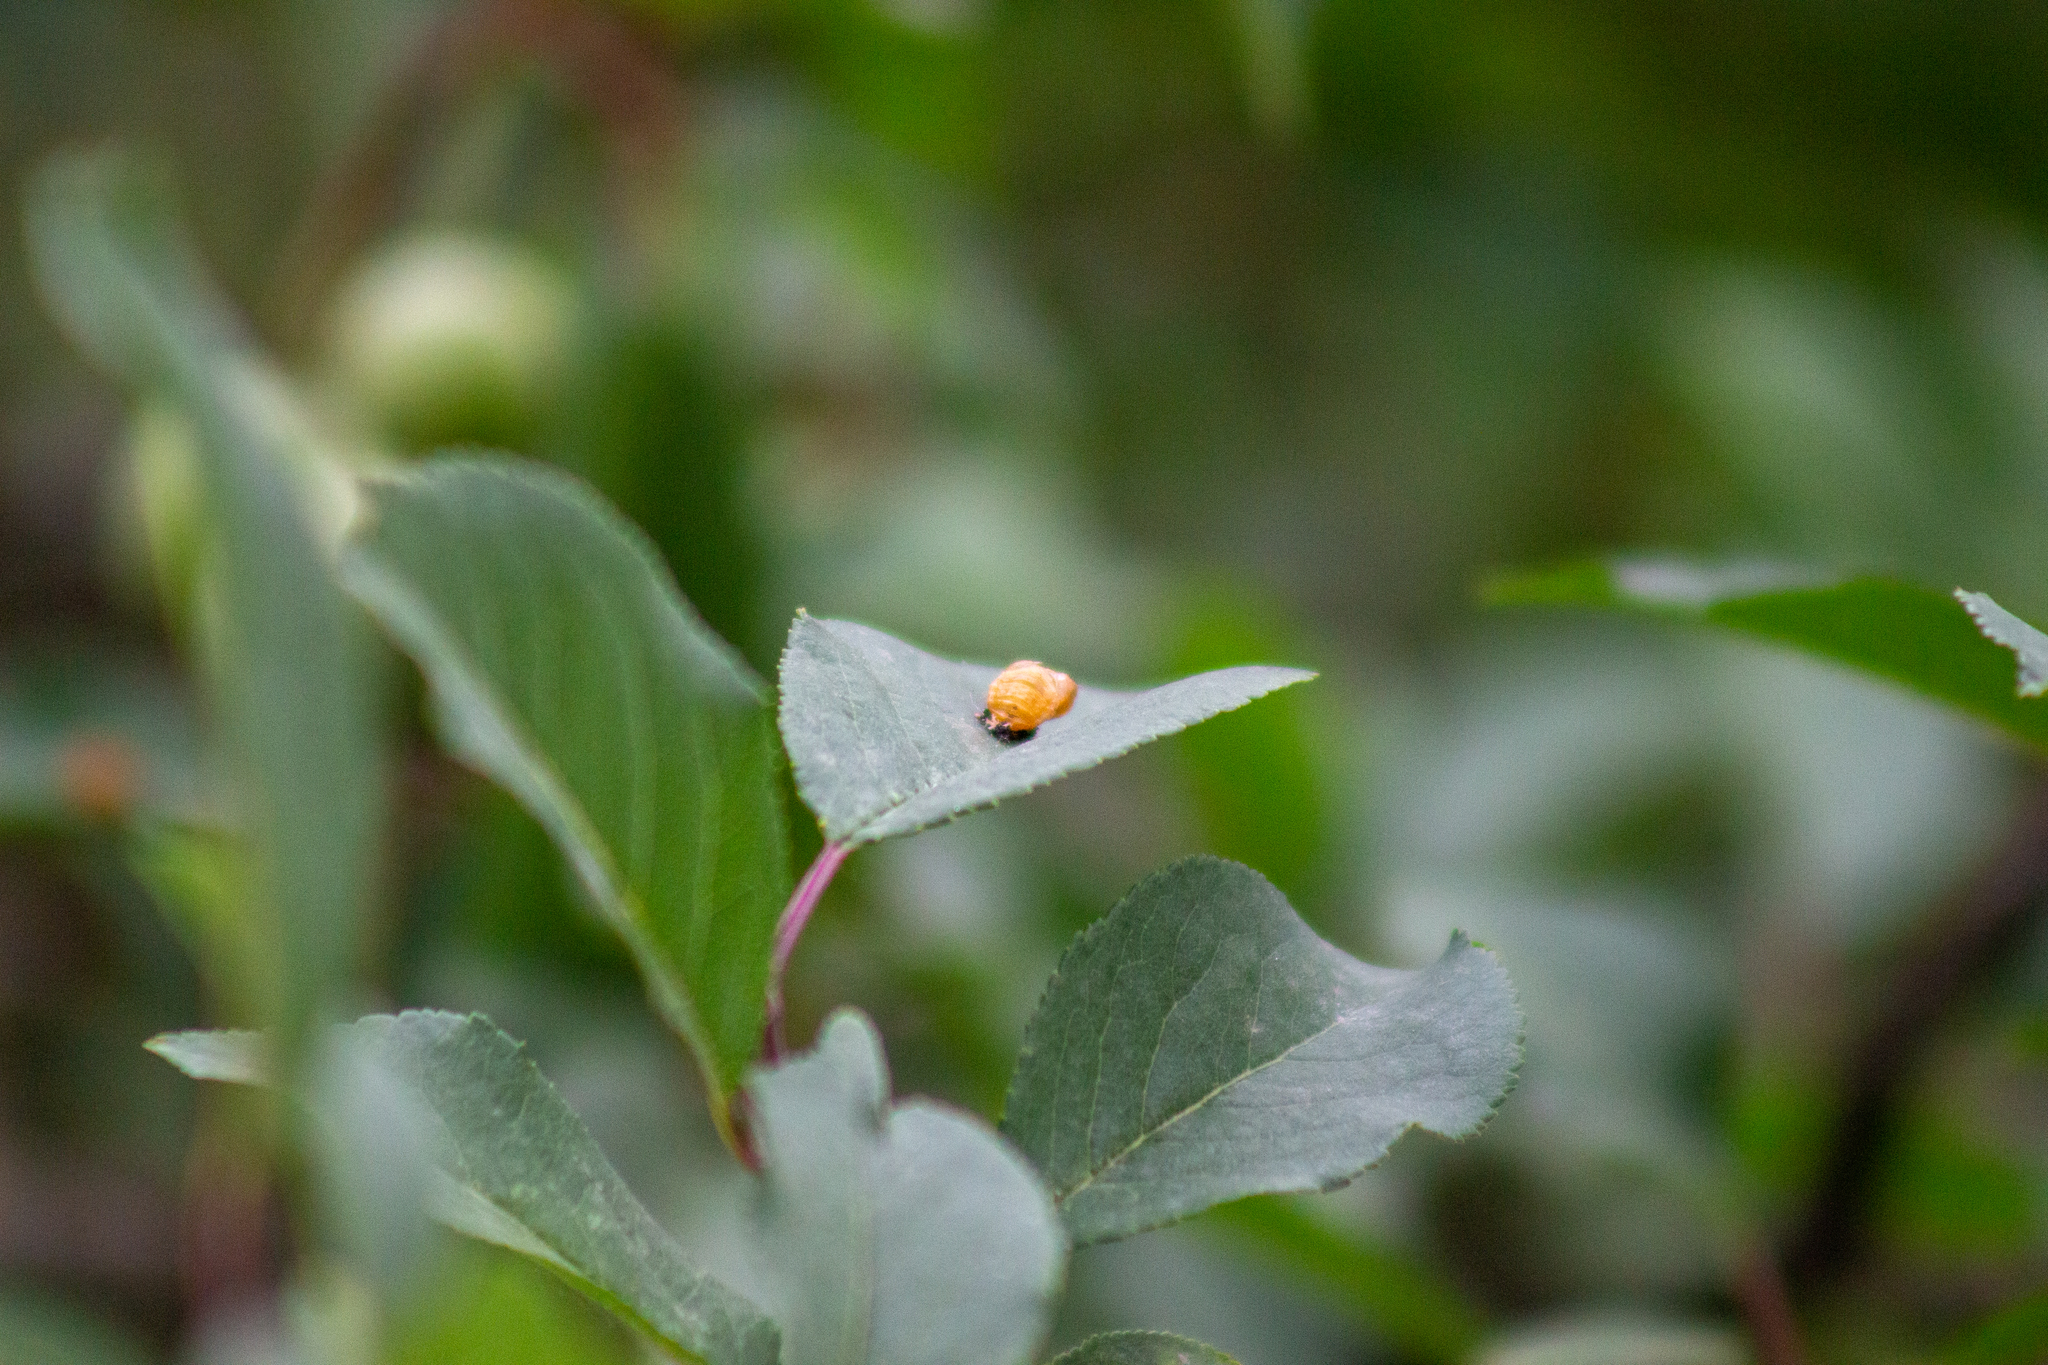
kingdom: Animalia
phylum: Arthropoda
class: Insecta
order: Coleoptera
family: Coccinellidae
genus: Harmonia
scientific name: Harmonia axyridis
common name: Harlequin ladybird
